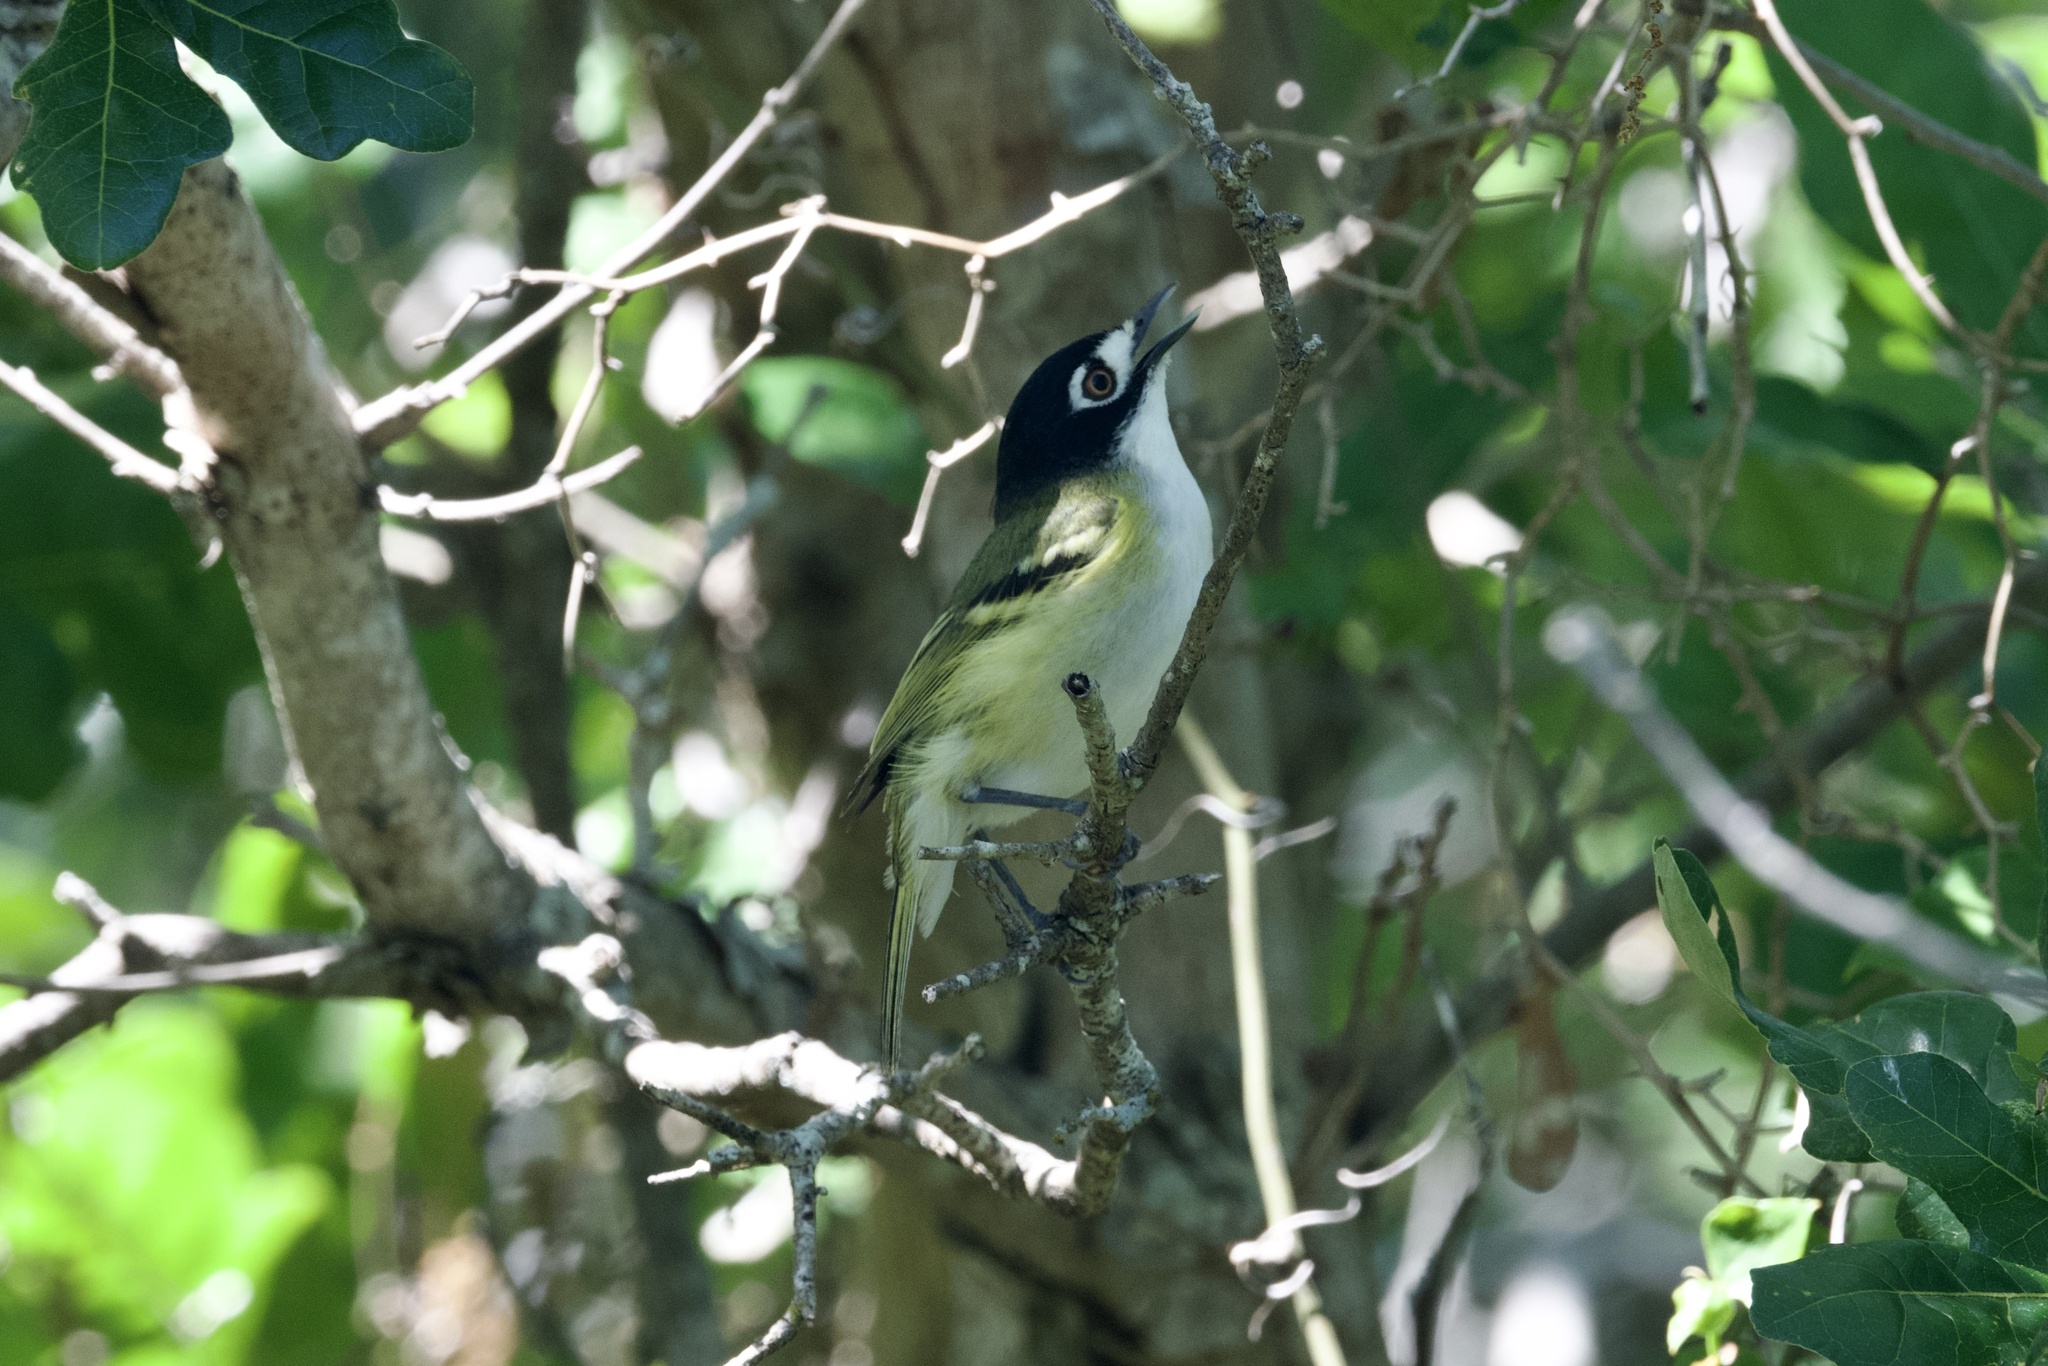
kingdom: Animalia
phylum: Chordata
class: Aves
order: Passeriformes
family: Vireonidae
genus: Vireo
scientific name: Vireo atricapilla
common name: Black-capped vireo
